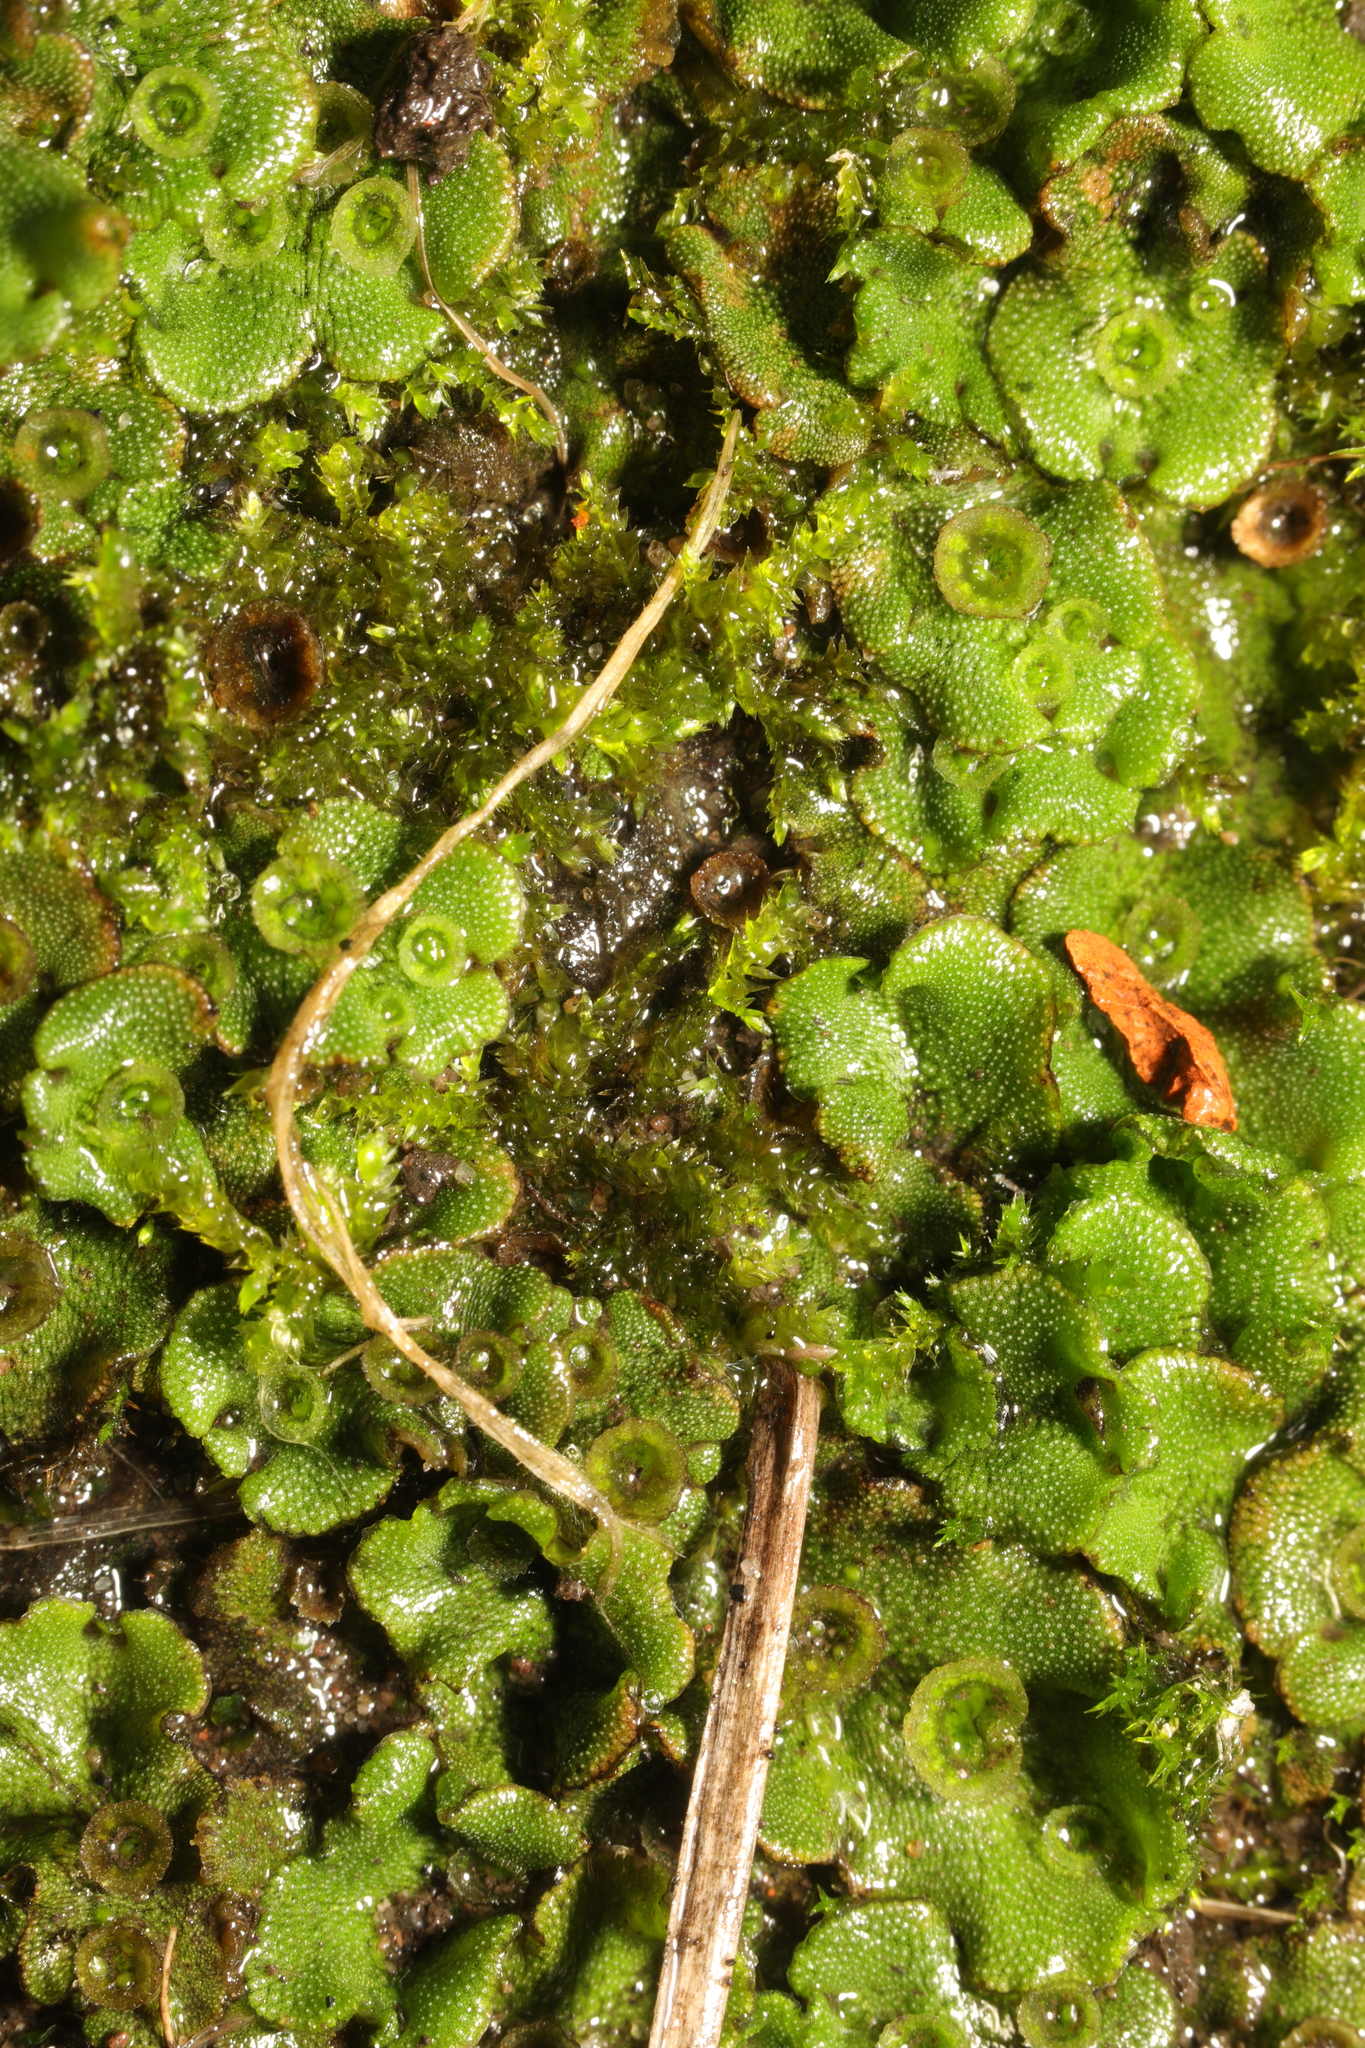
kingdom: Plantae
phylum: Marchantiophyta
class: Marchantiopsida
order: Marchantiales
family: Marchantiaceae
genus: Marchantia
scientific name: Marchantia polymorpha
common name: Common liverwort
